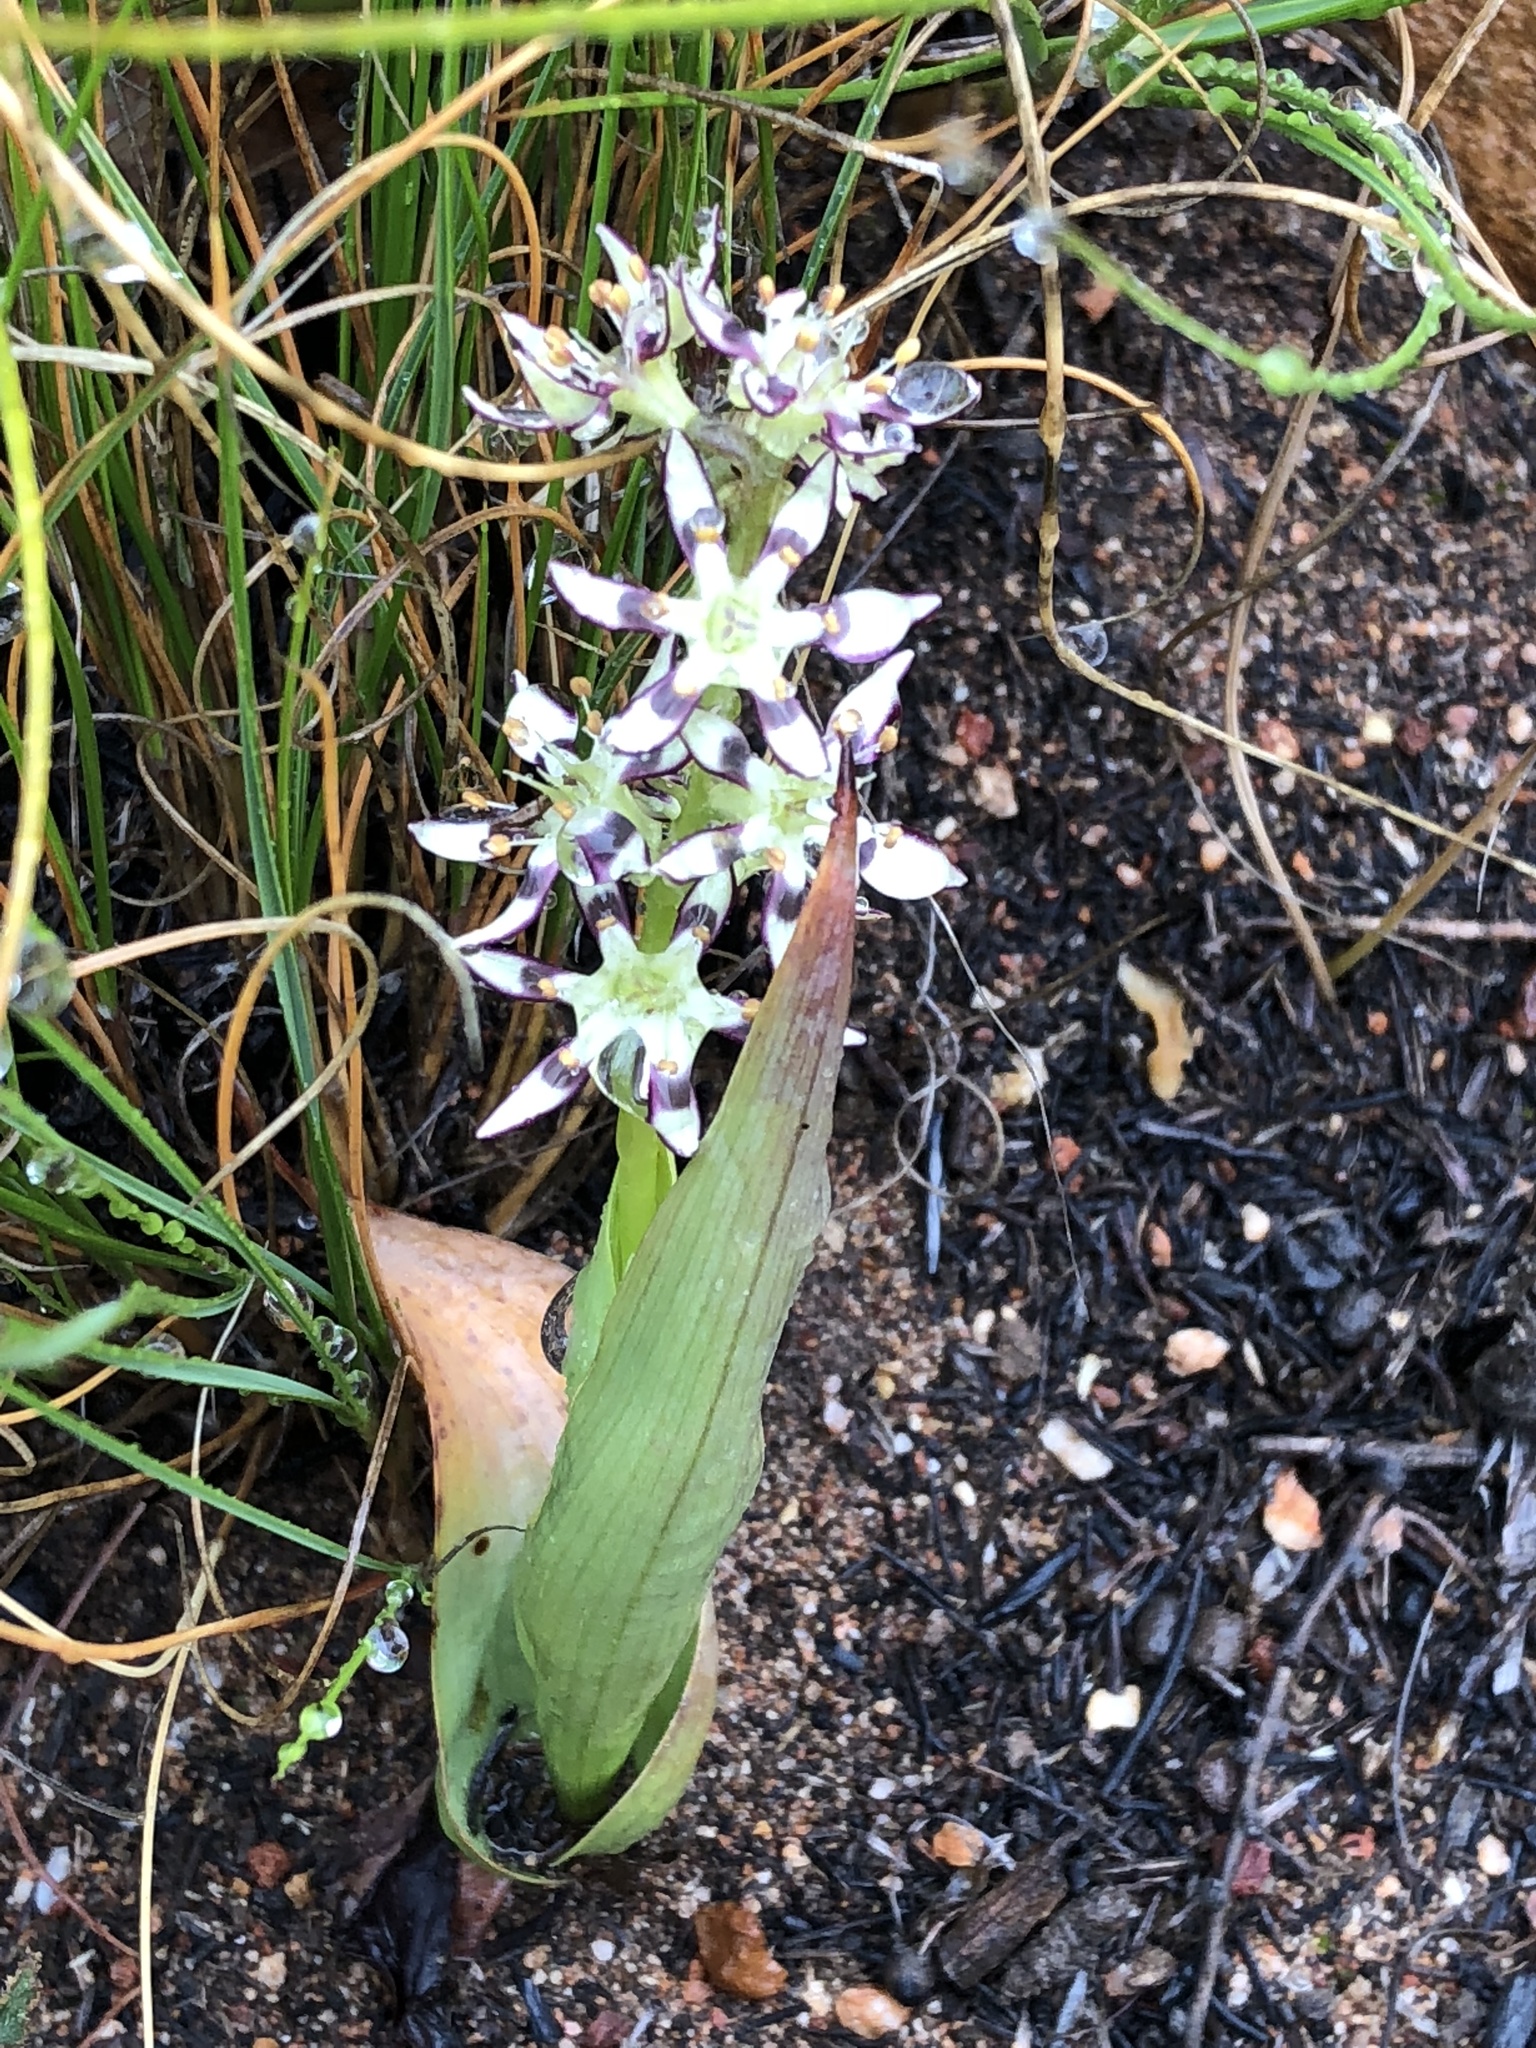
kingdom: Plantae
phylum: Tracheophyta
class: Liliopsida
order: Liliales
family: Colchicaceae
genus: Wurmbea
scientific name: Wurmbea variabilis
